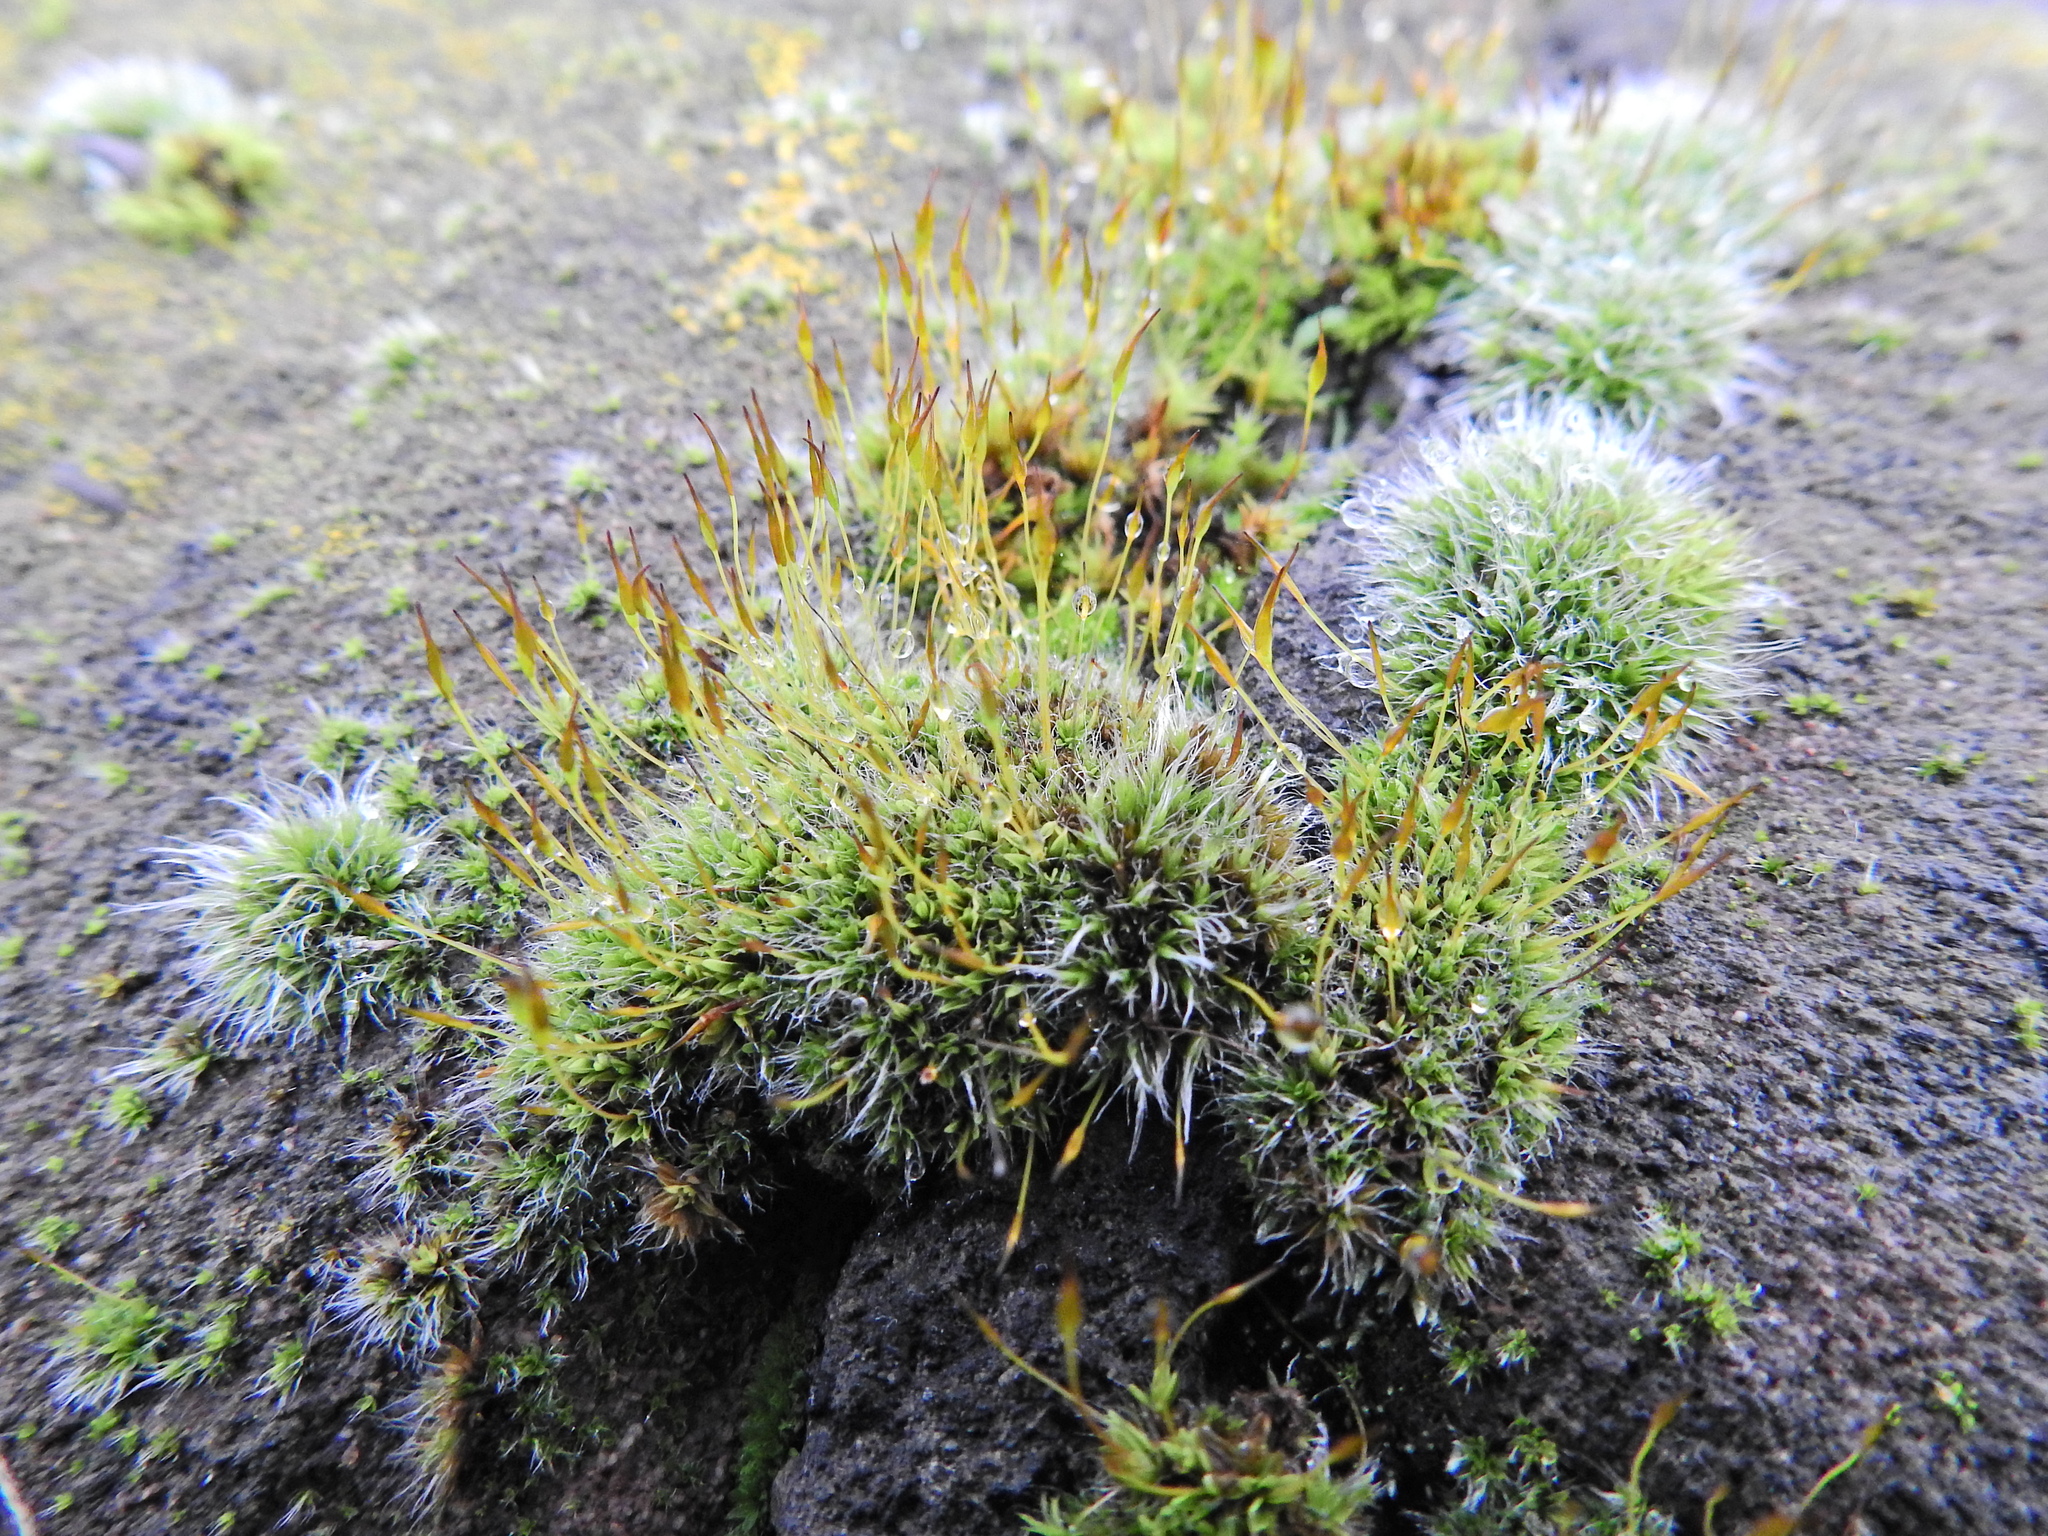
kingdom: Plantae
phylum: Bryophyta
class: Bryopsida
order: Pottiales
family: Pottiaceae
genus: Tortula
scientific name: Tortula muralis
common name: Wall screw-moss
